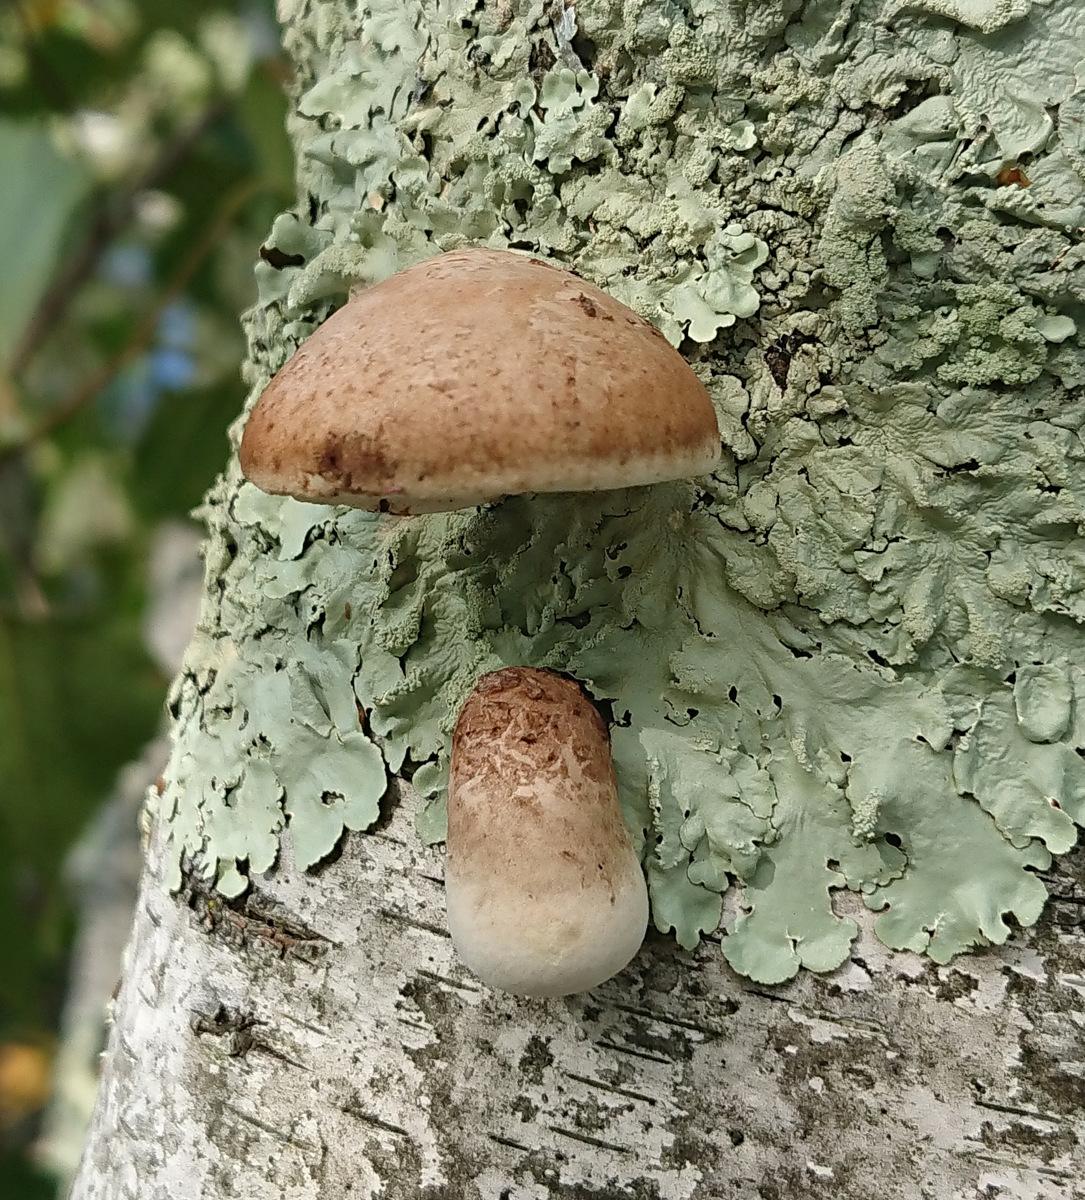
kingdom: Fungi
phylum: Basidiomycota
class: Agaricomycetes
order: Polyporales
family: Fomitopsidaceae
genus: Fomitopsis
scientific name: Fomitopsis betulina
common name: Birch polypore
